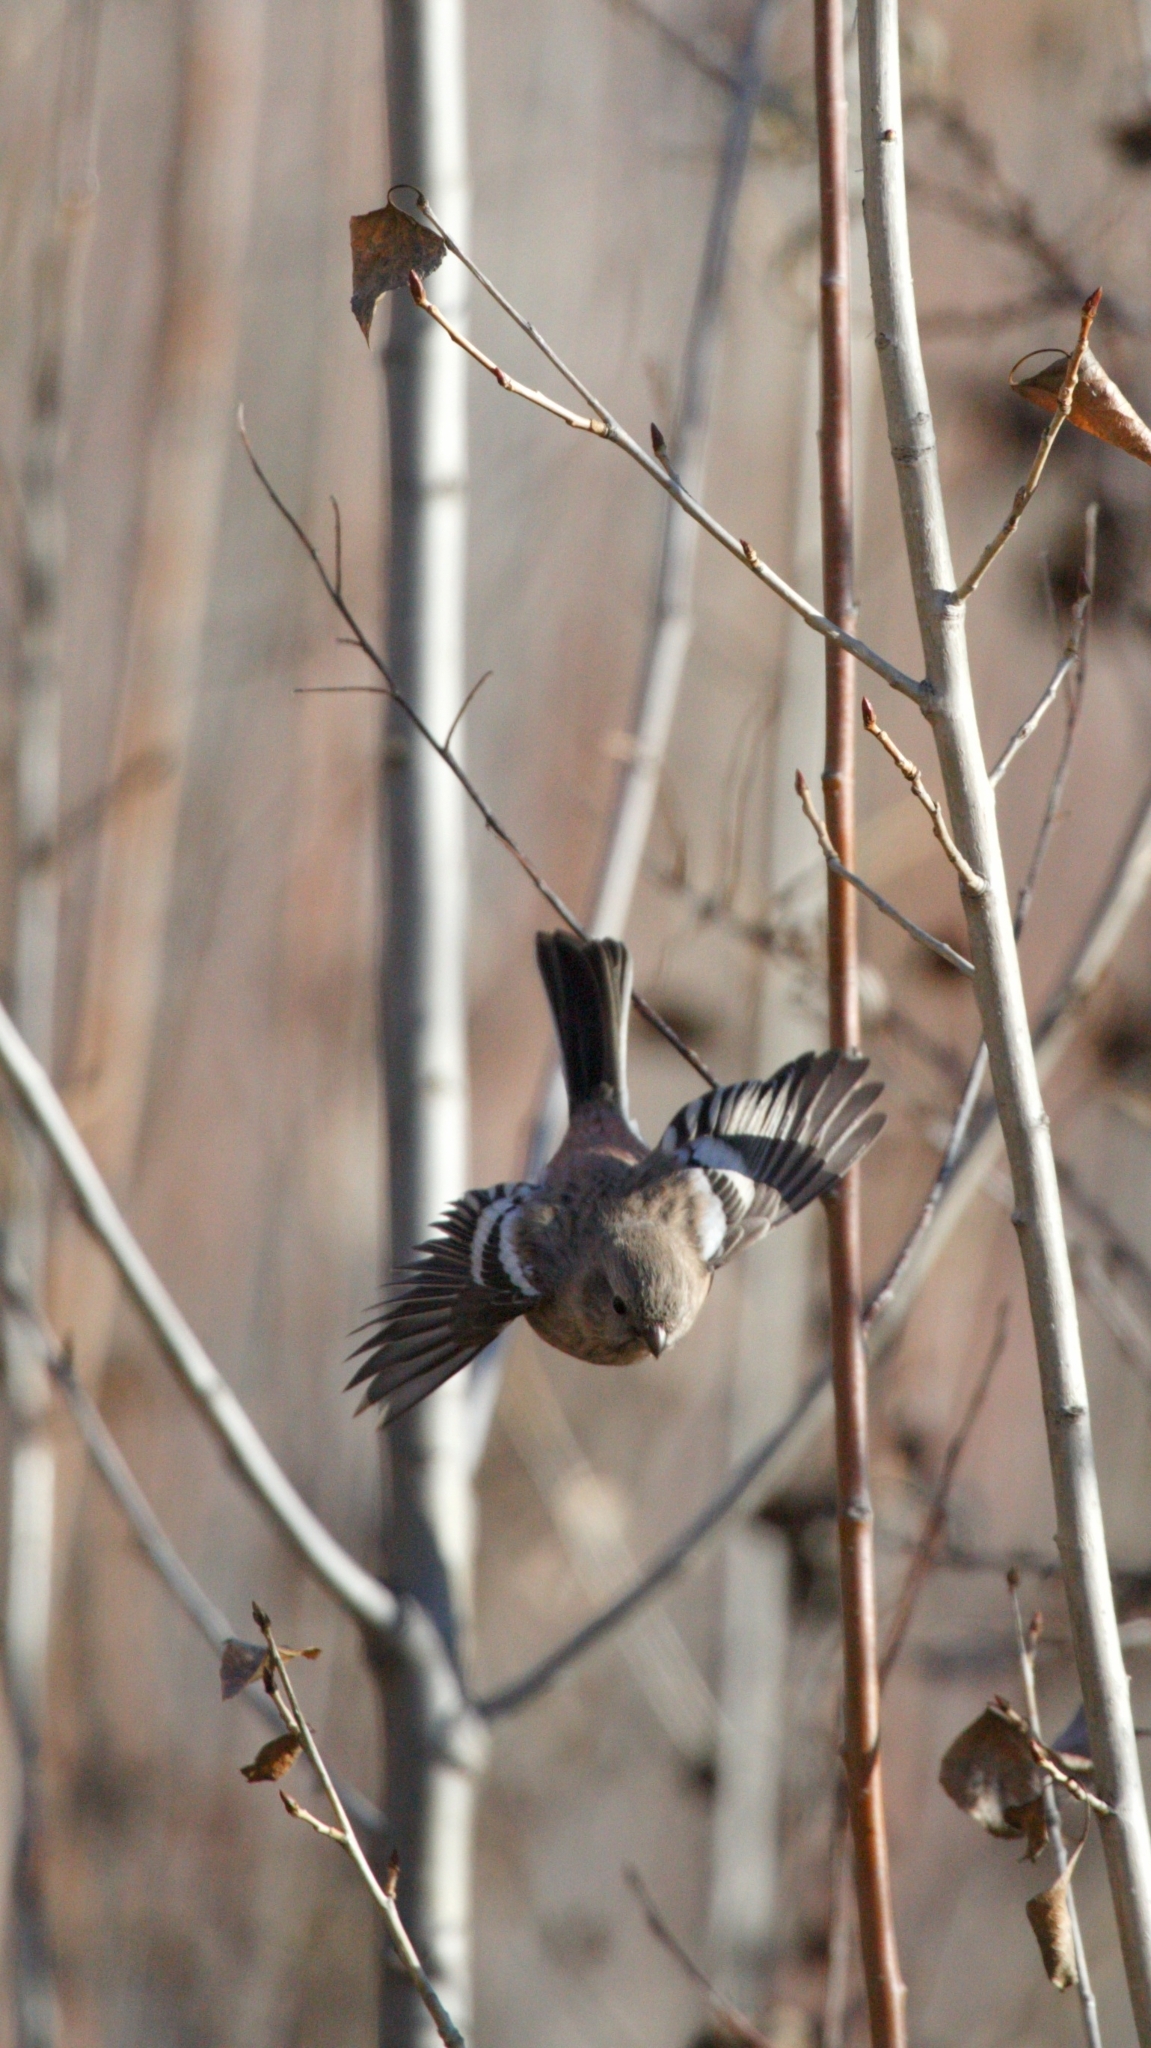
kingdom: Animalia
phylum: Chordata
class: Aves
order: Passeriformes
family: Fringillidae
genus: Carpodacus
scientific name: Carpodacus sibiricus
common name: Long-tailed rosefinch
